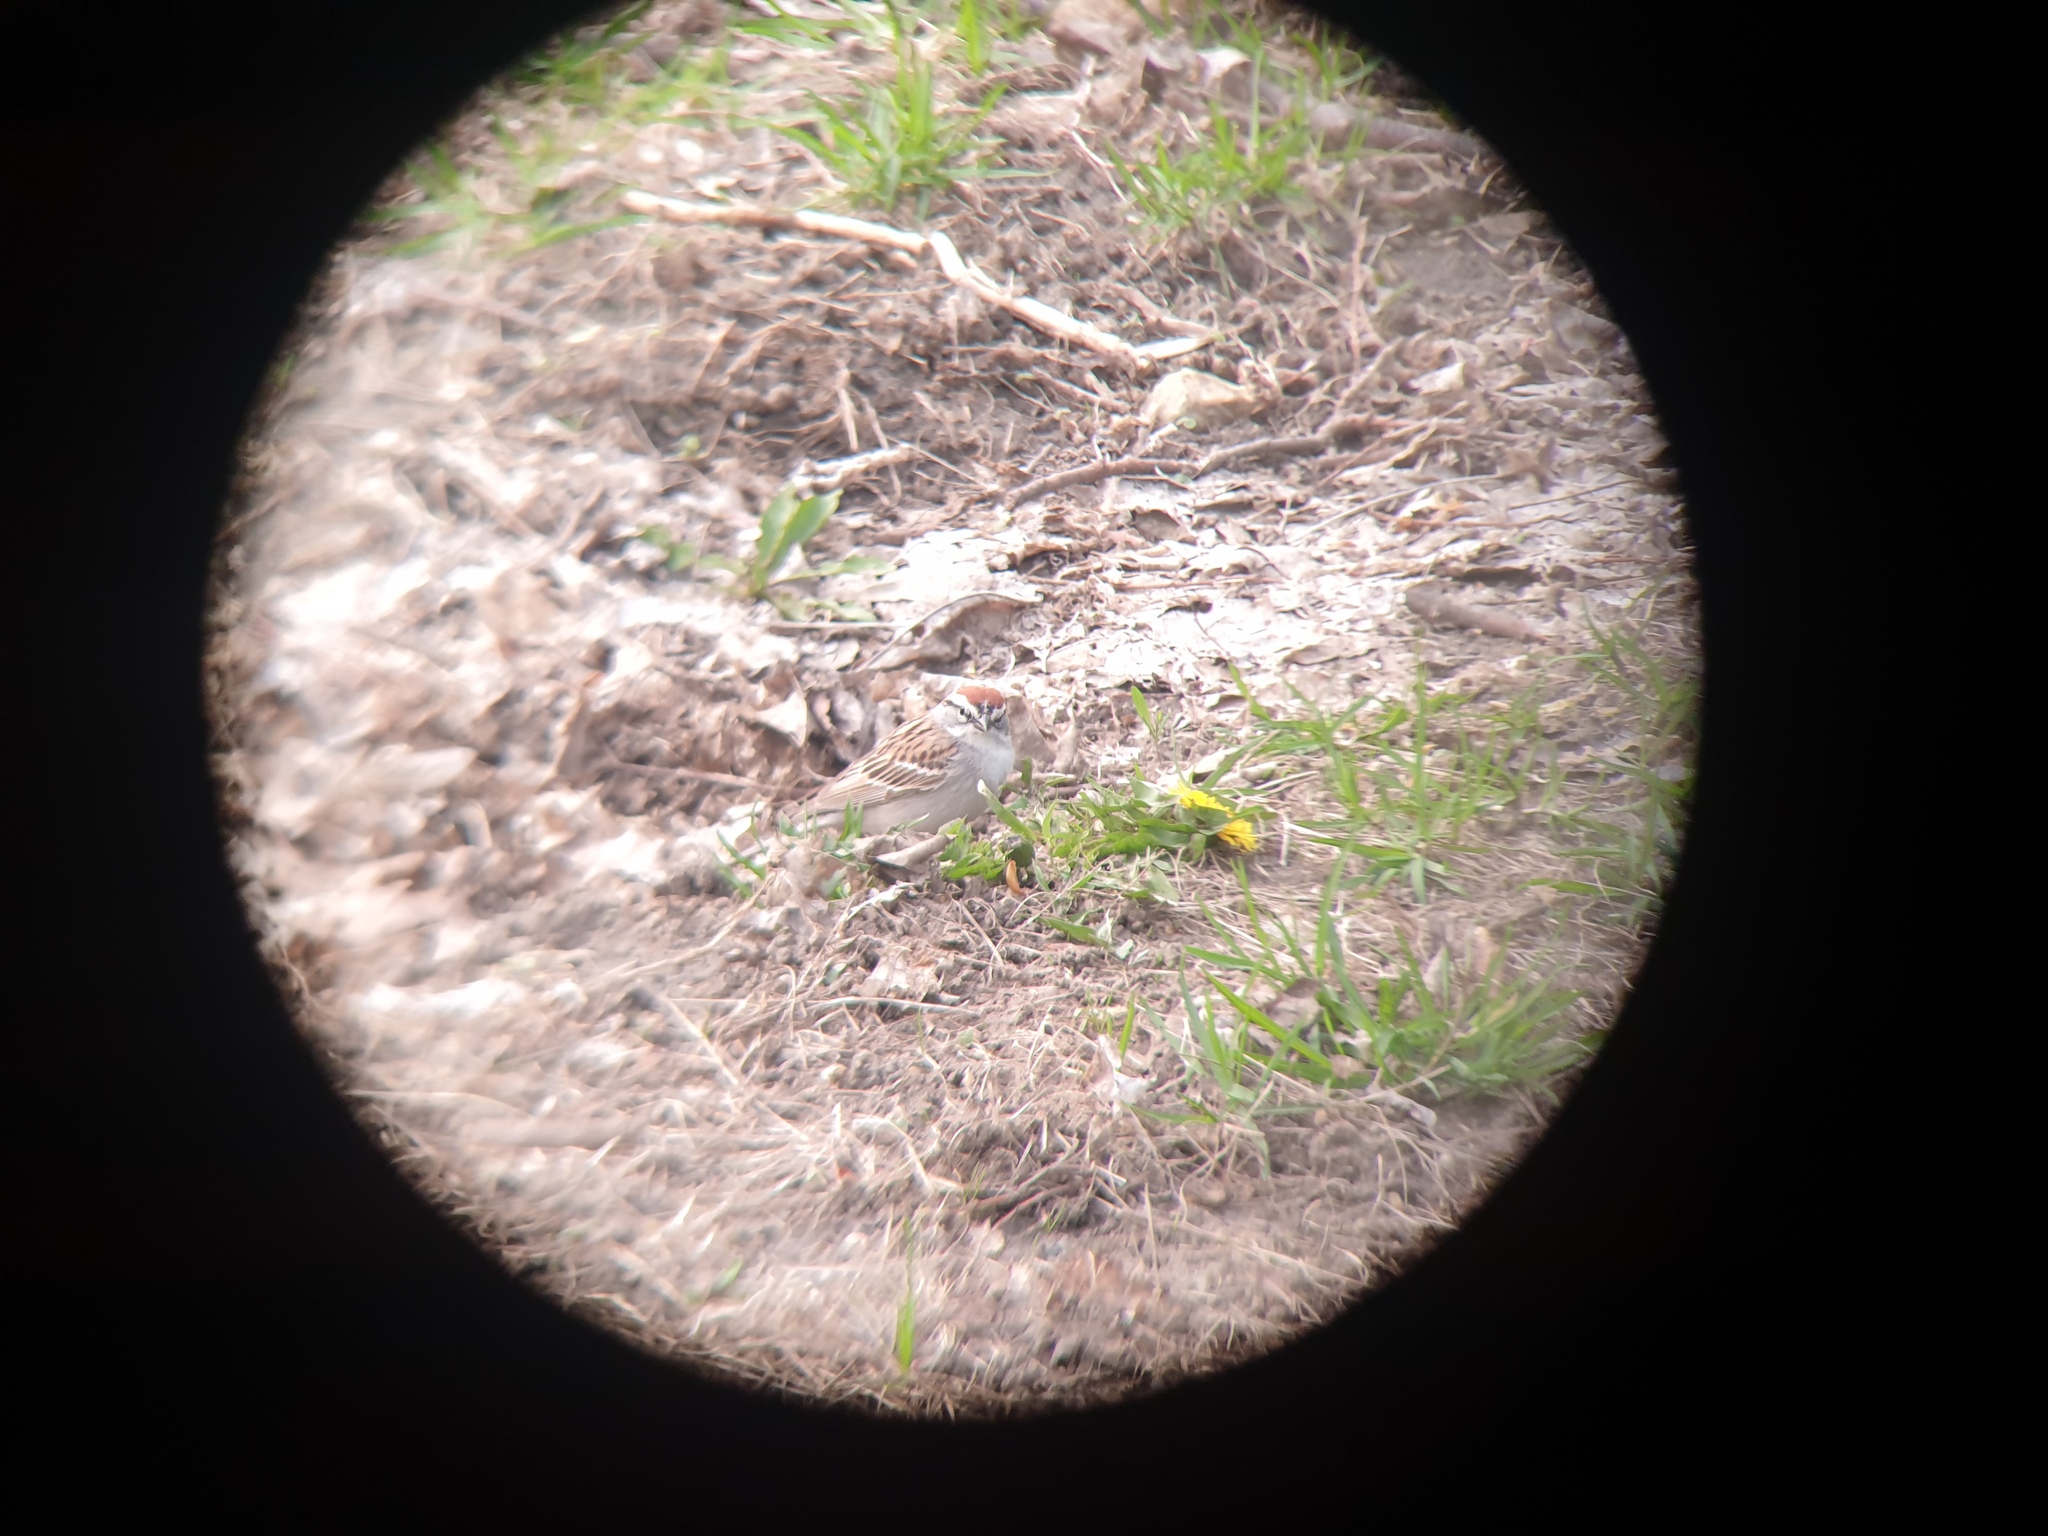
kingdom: Animalia
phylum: Chordata
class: Aves
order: Passeriformes
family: Passerellidae
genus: Spizella
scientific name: Spizella passerina
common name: Chipping sparrow
